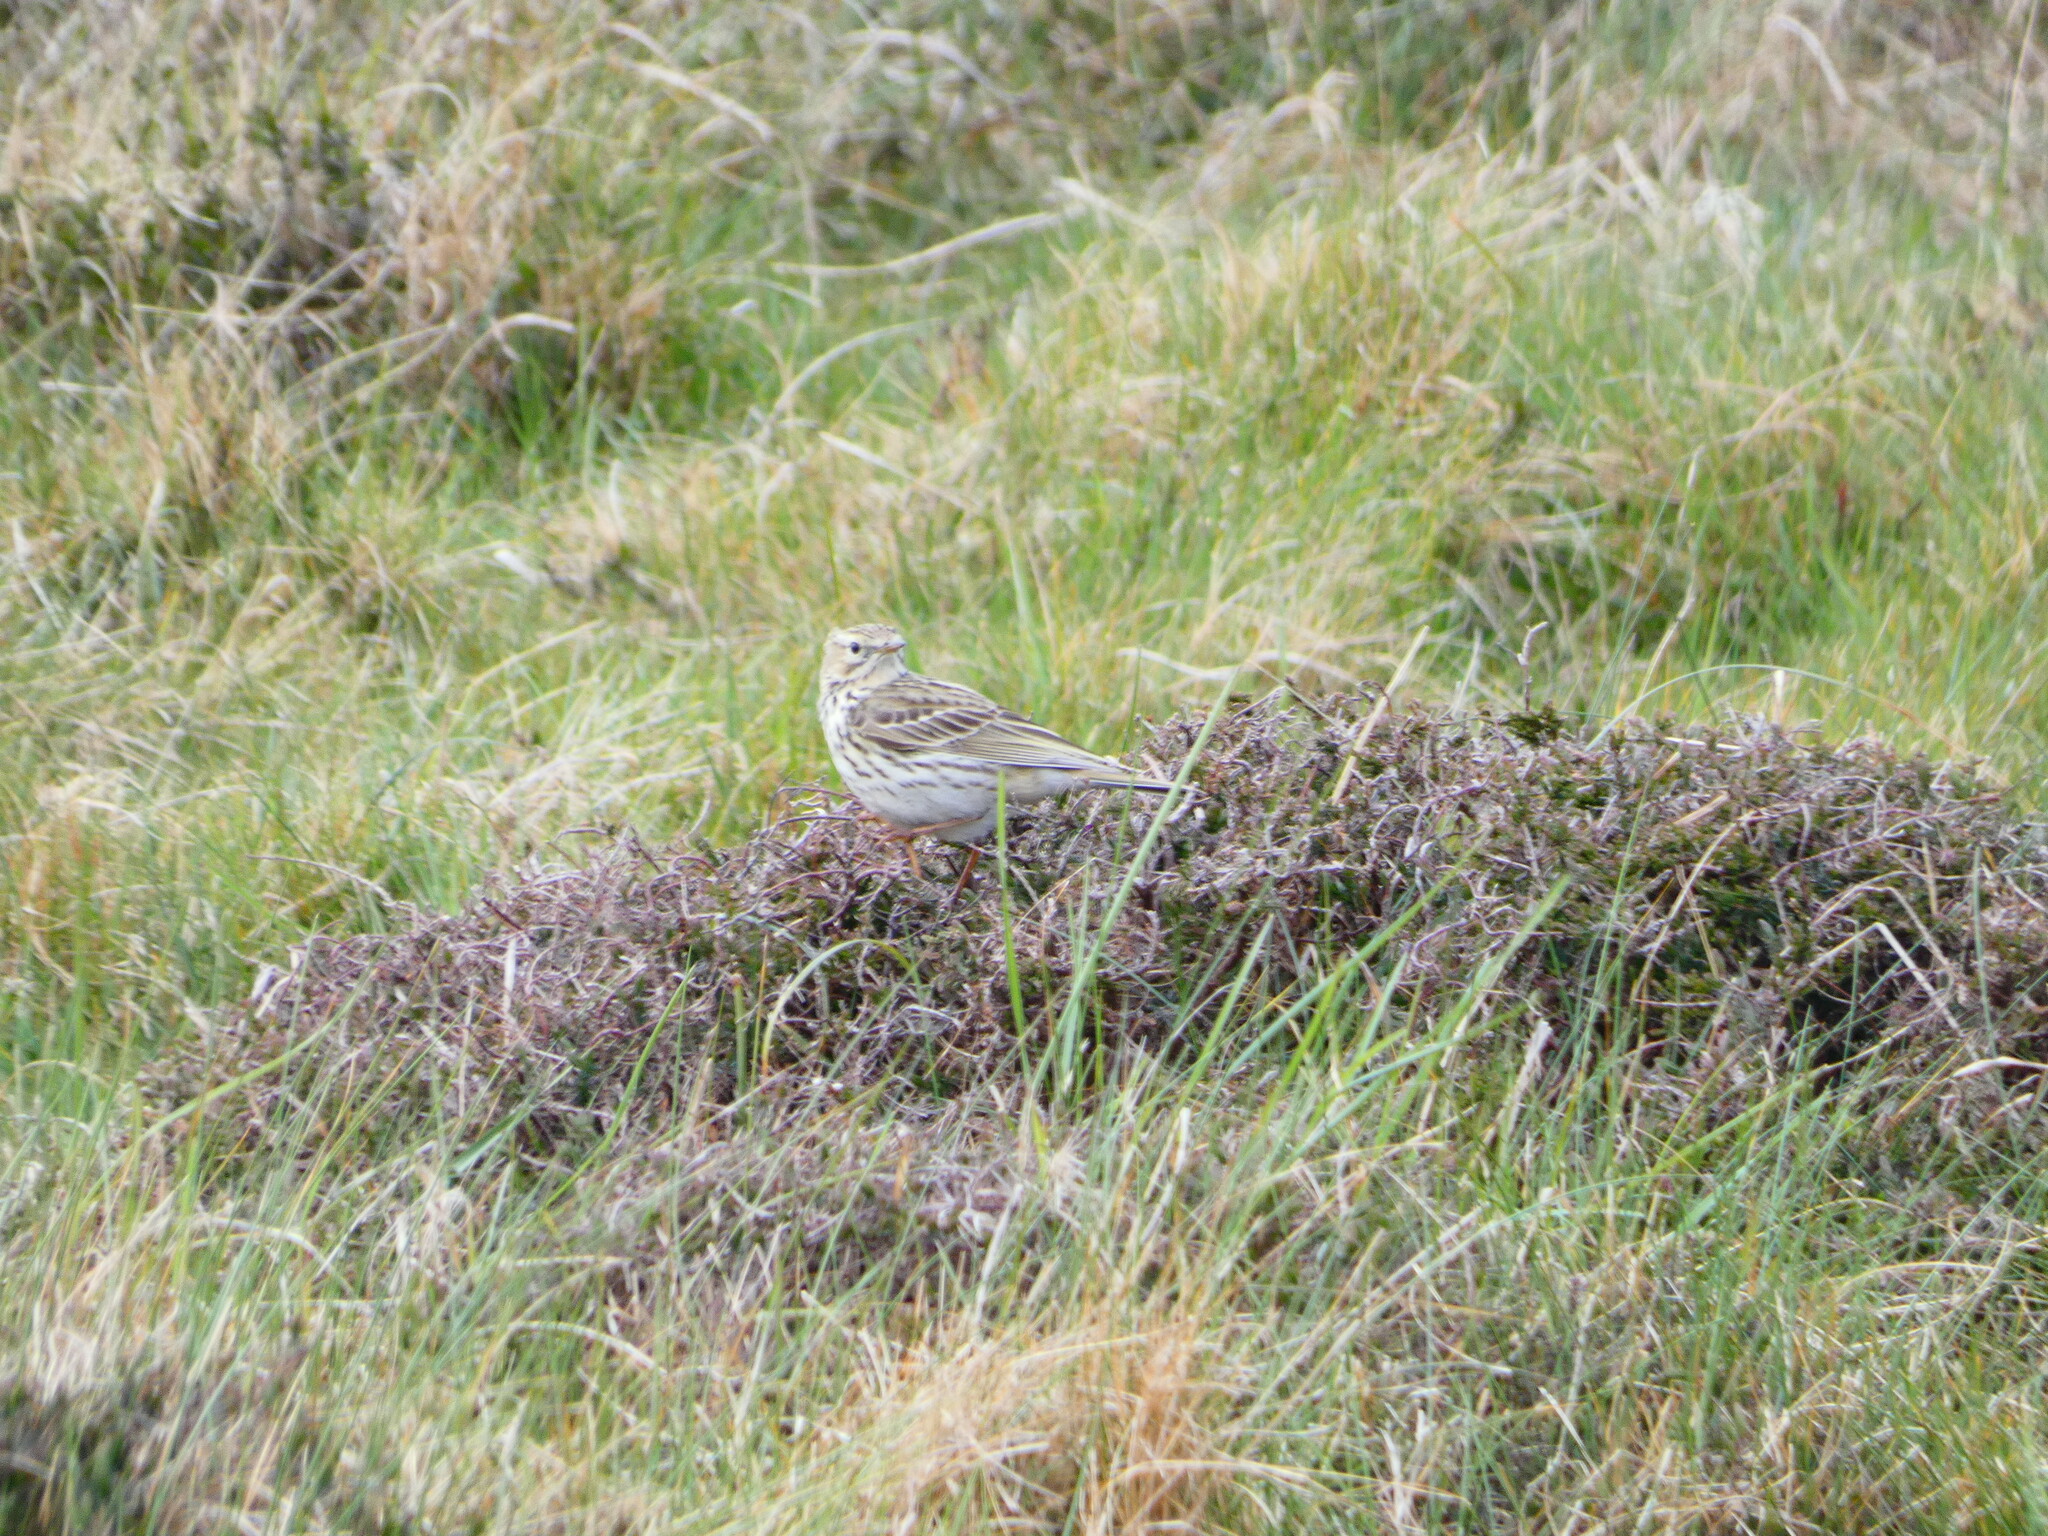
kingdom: Animalia
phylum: Chordata
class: Aves
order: Passeriformes
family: Motacillidae
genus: Anthus
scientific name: Anthus pratensis
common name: Meadow pipit
